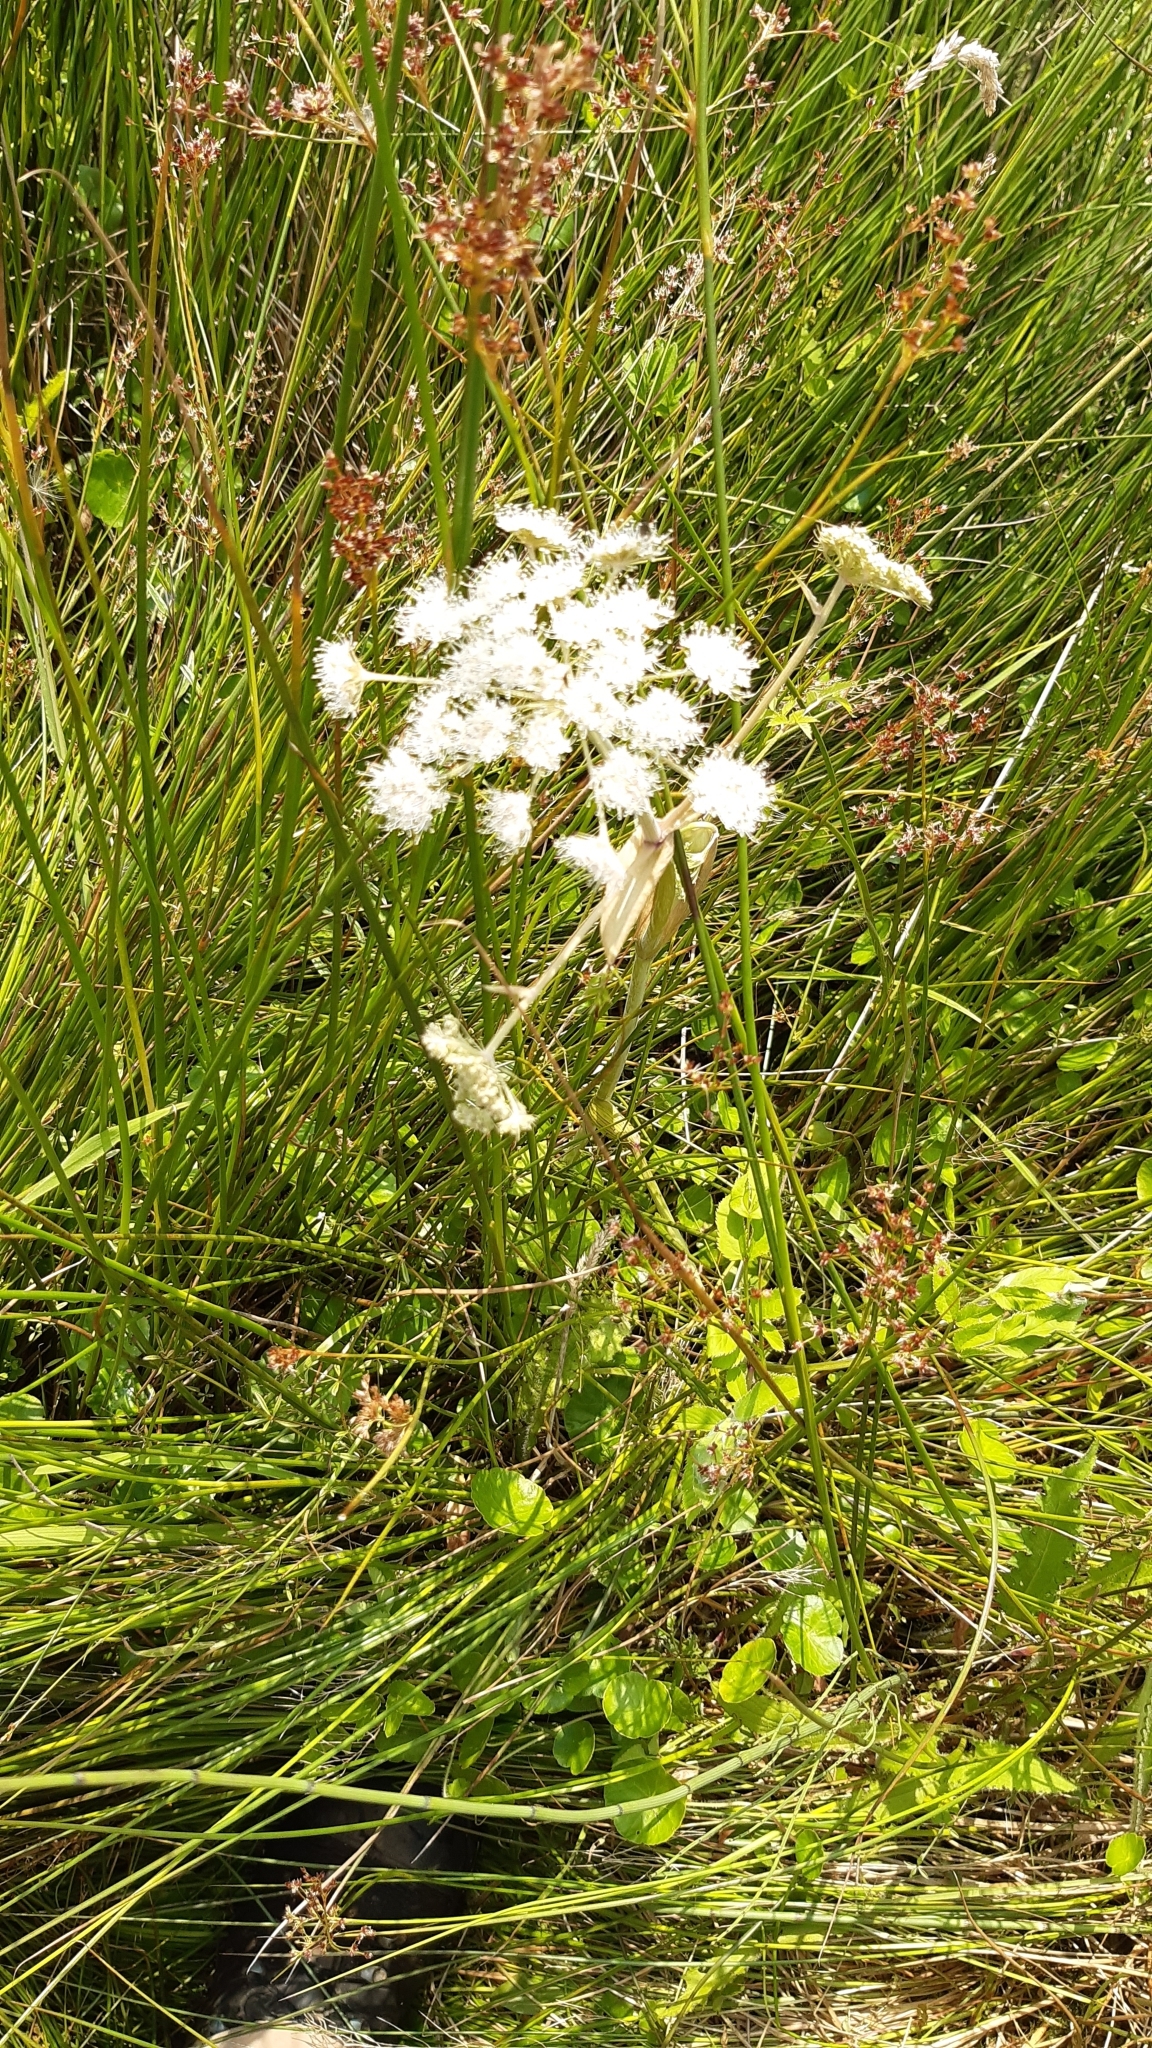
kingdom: Plantae
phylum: Tracheophyta
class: Magnoliopsida
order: Apiales
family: Apiaceae
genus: Angelica
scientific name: Angelica sylvestris
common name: Wild angelica
